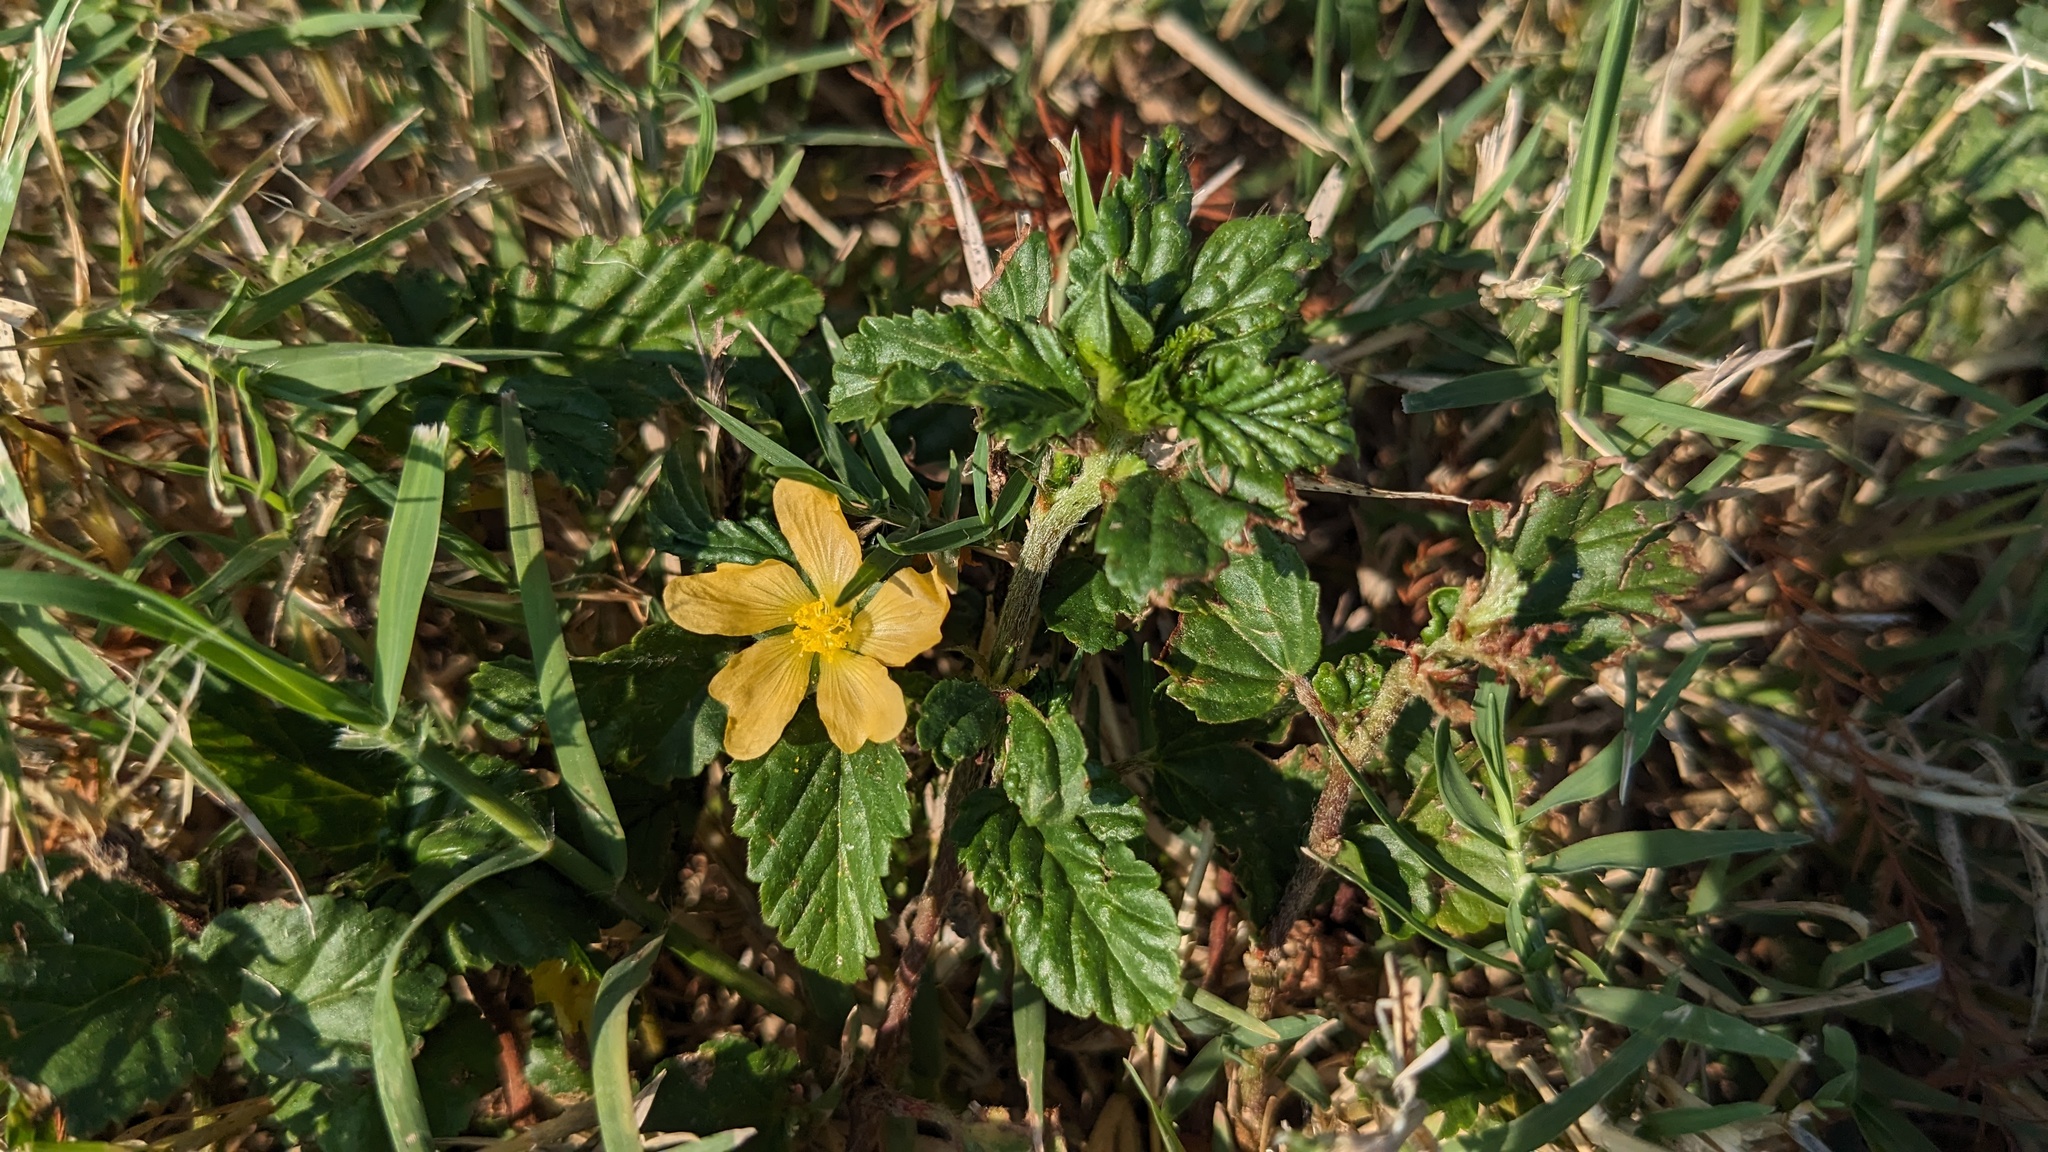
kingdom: Plantae
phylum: Tracheophyta
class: Magnoliopsida
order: Malvales
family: Malvaceae
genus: Malvastrum
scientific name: Malvastrum coromandelianum
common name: Threelobe false mallow
